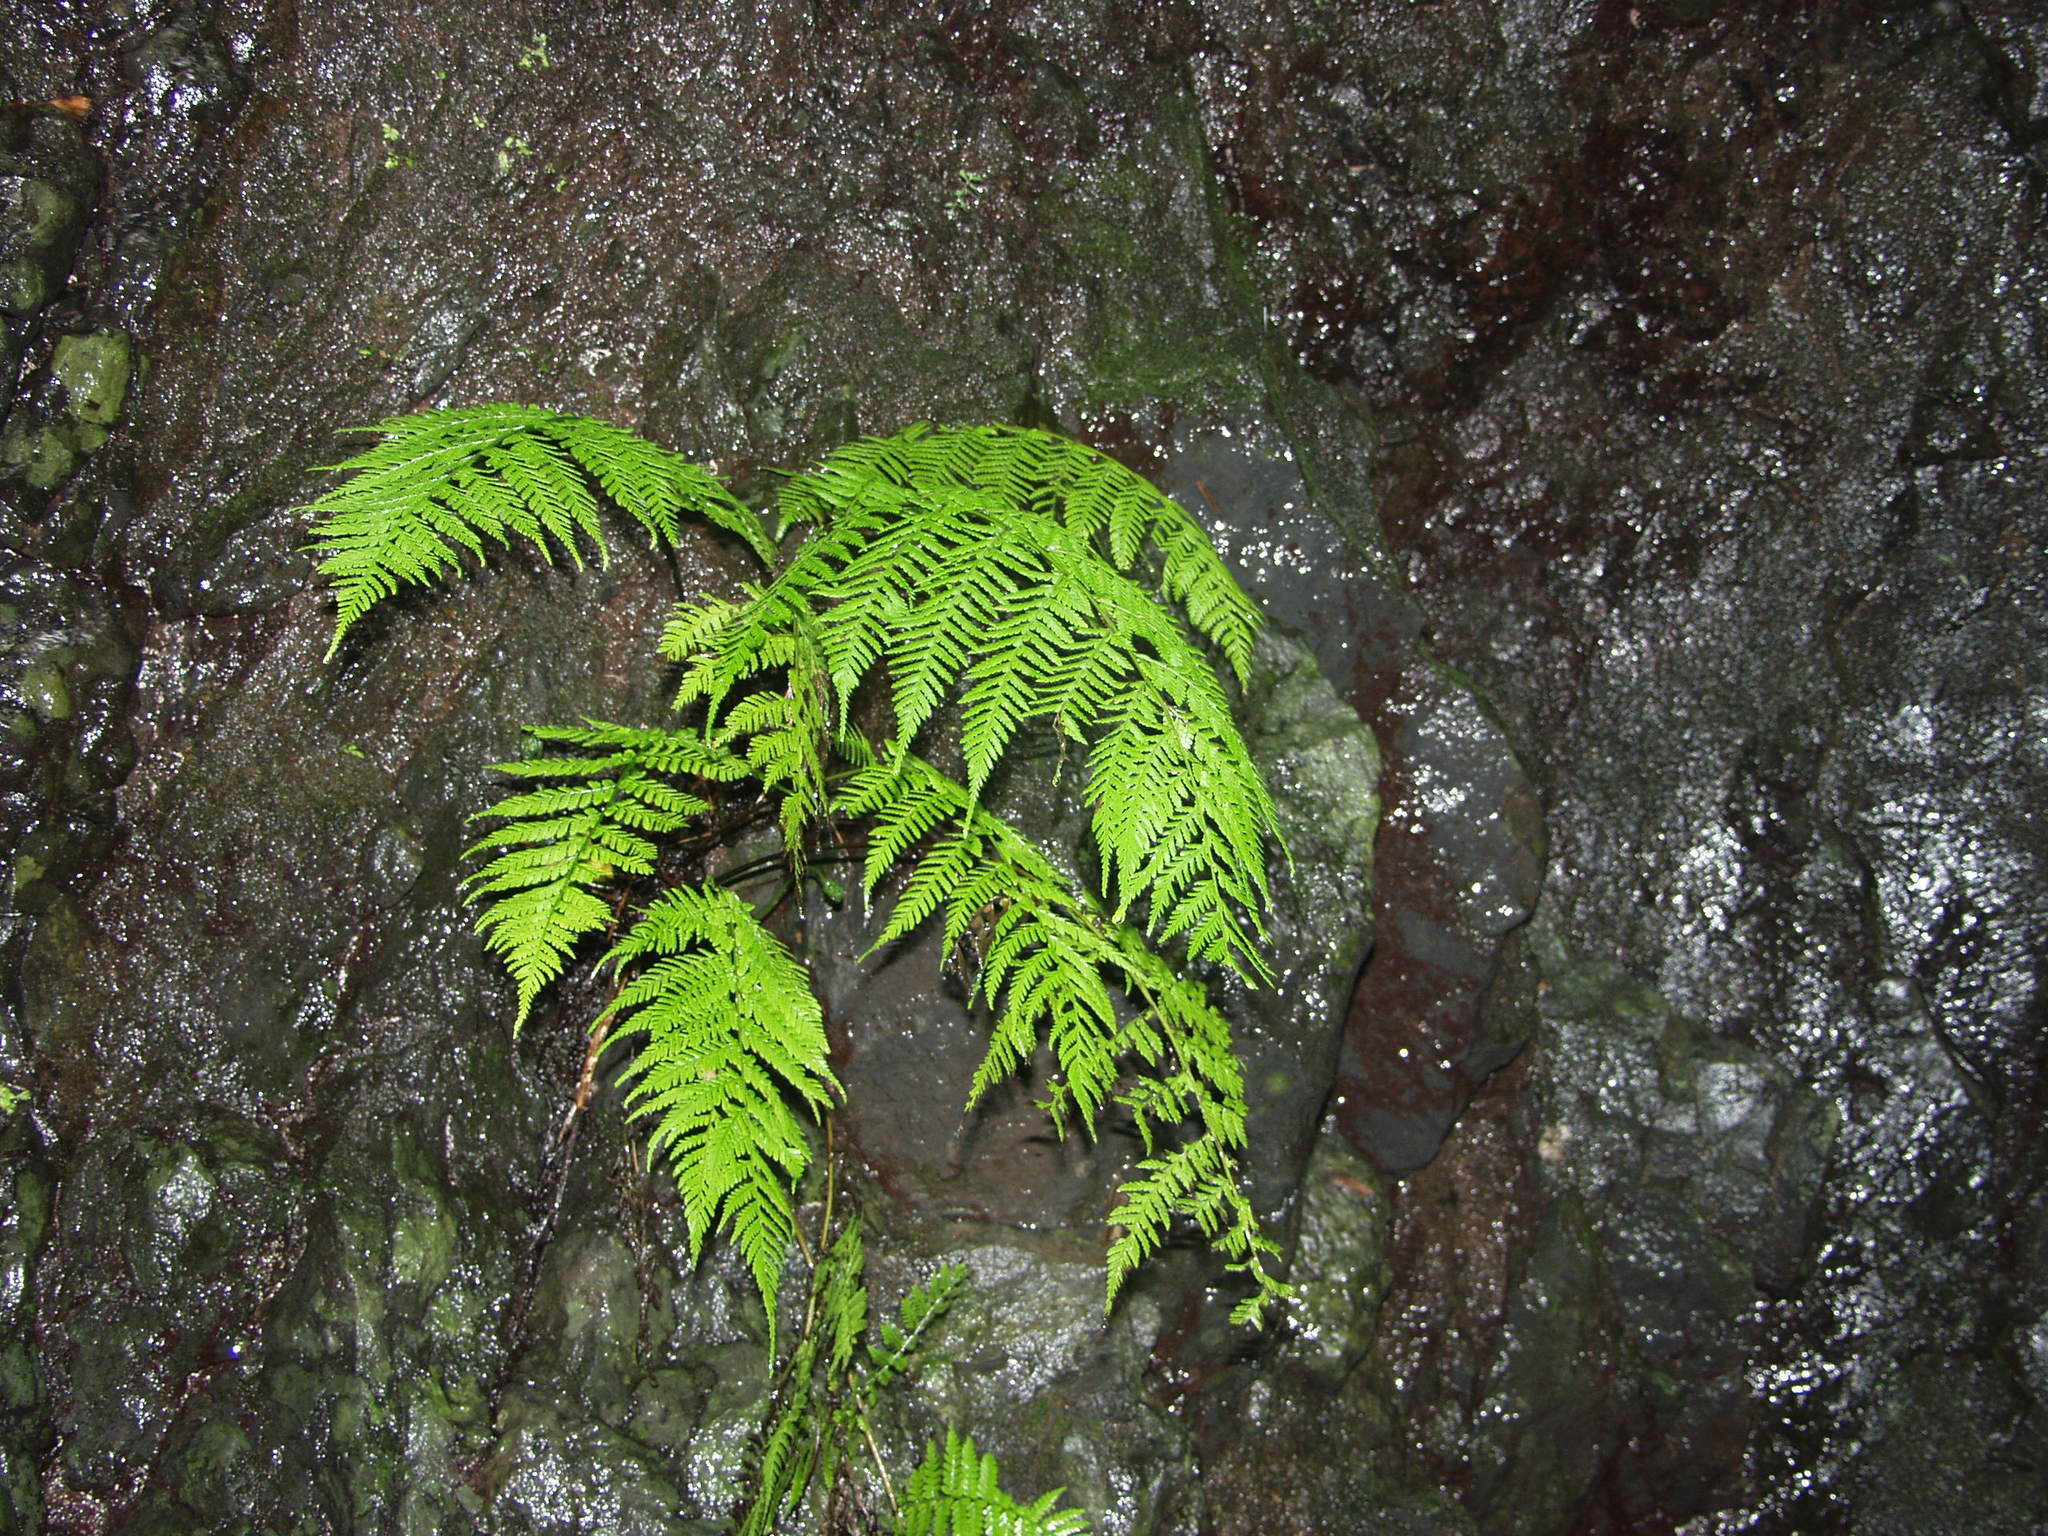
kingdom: Plantae
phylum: Tracheophyta
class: Polypodiopsida
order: Polypodiales
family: Athyriaceae
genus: Diplazium
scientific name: Diplazium caudatum
